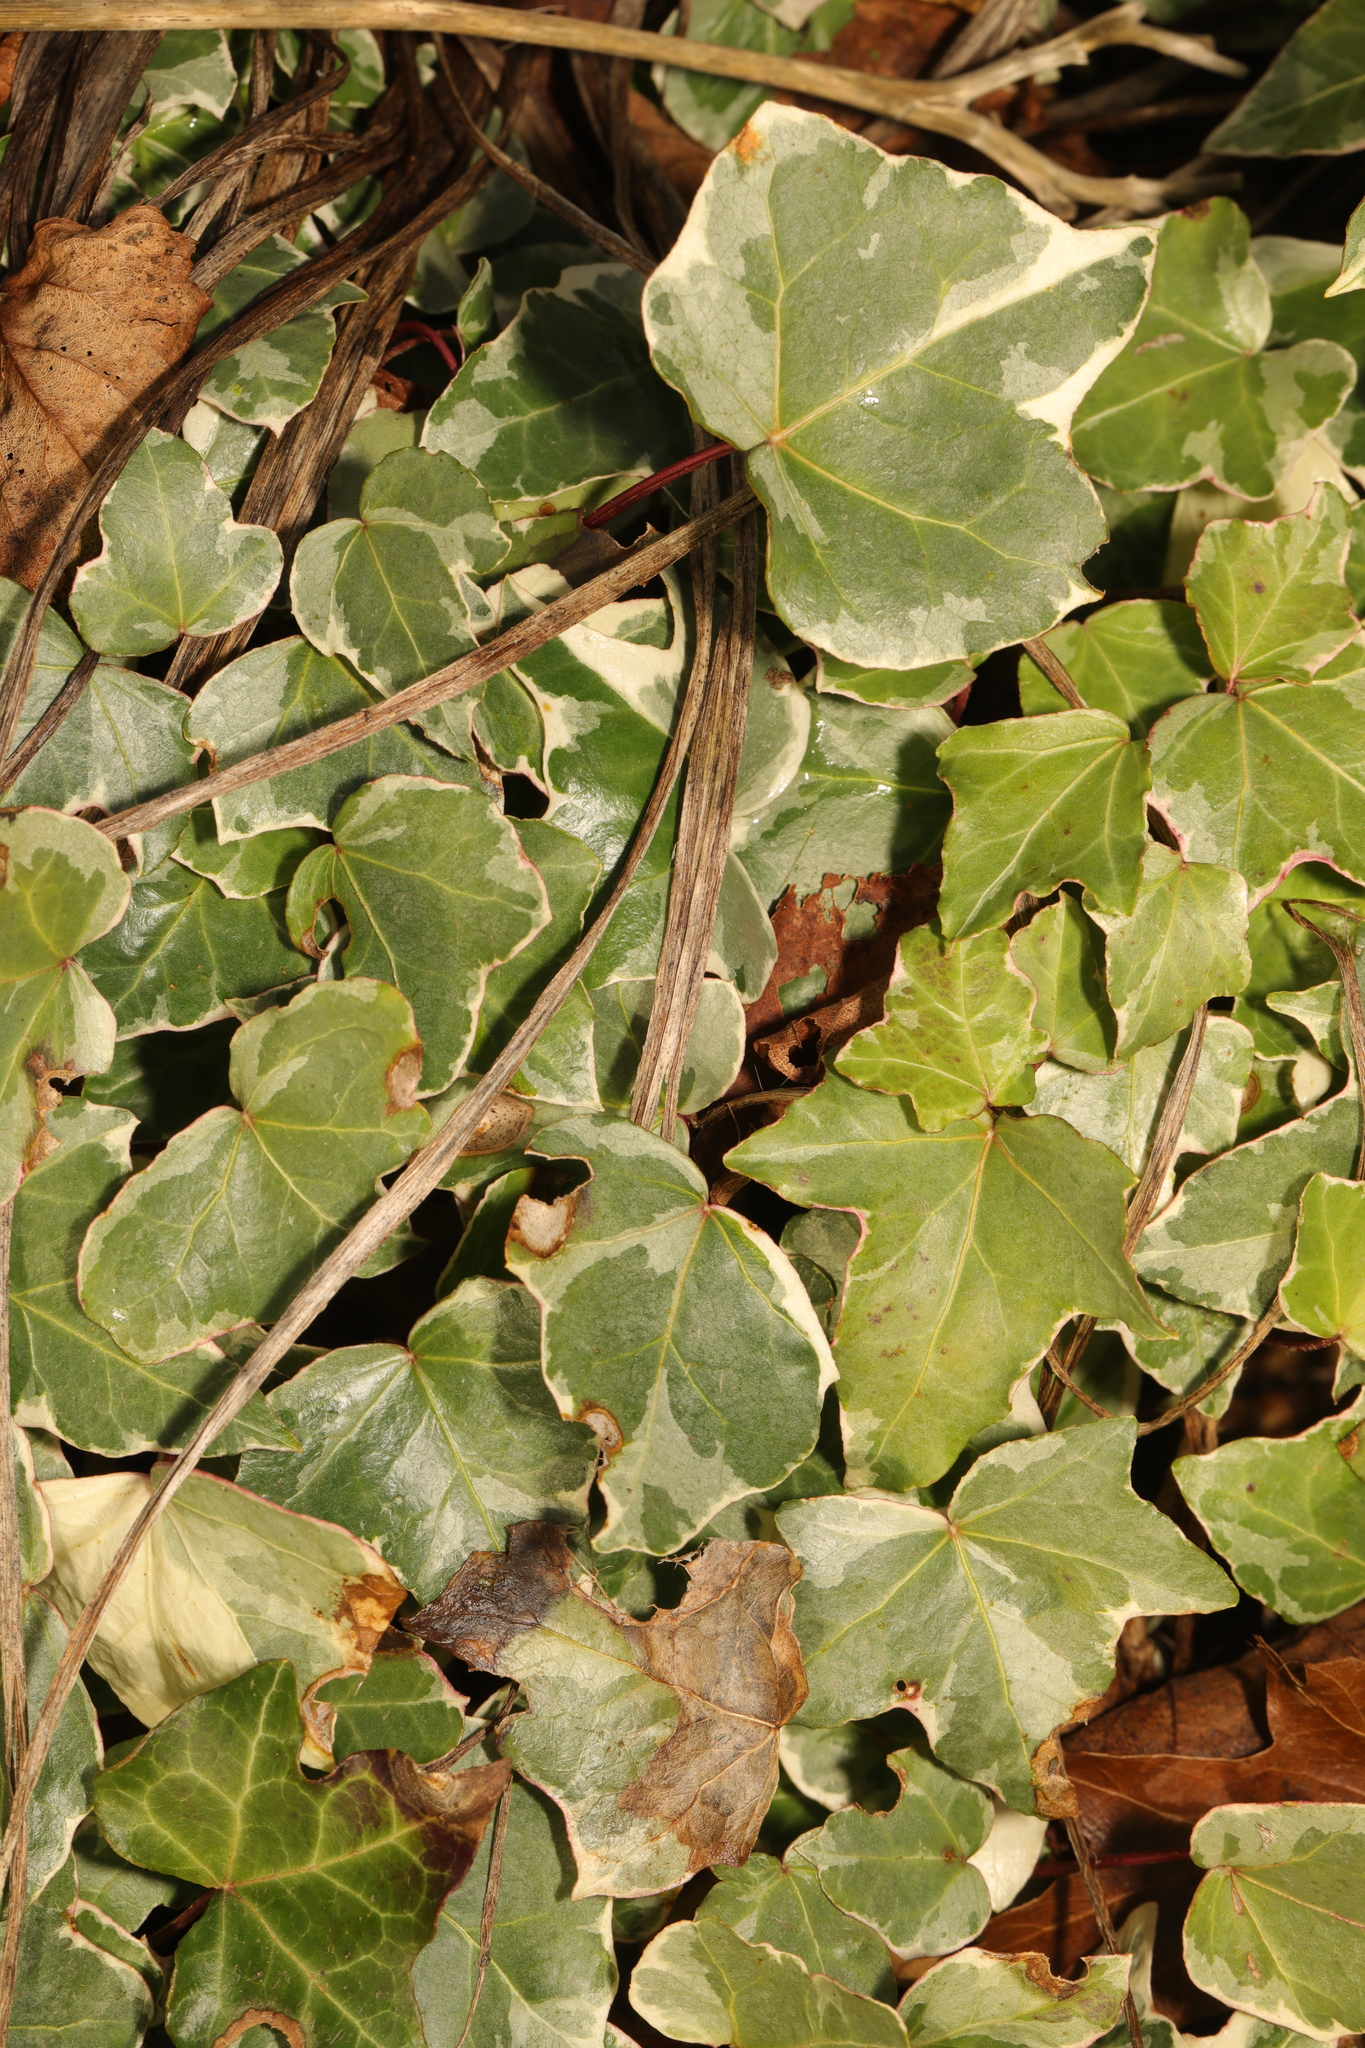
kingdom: Plantae
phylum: Tracheophyta
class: Magnoliopsida
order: Apiales
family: Araliaceae
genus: Hedera
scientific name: Hedera helix
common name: Ivy
